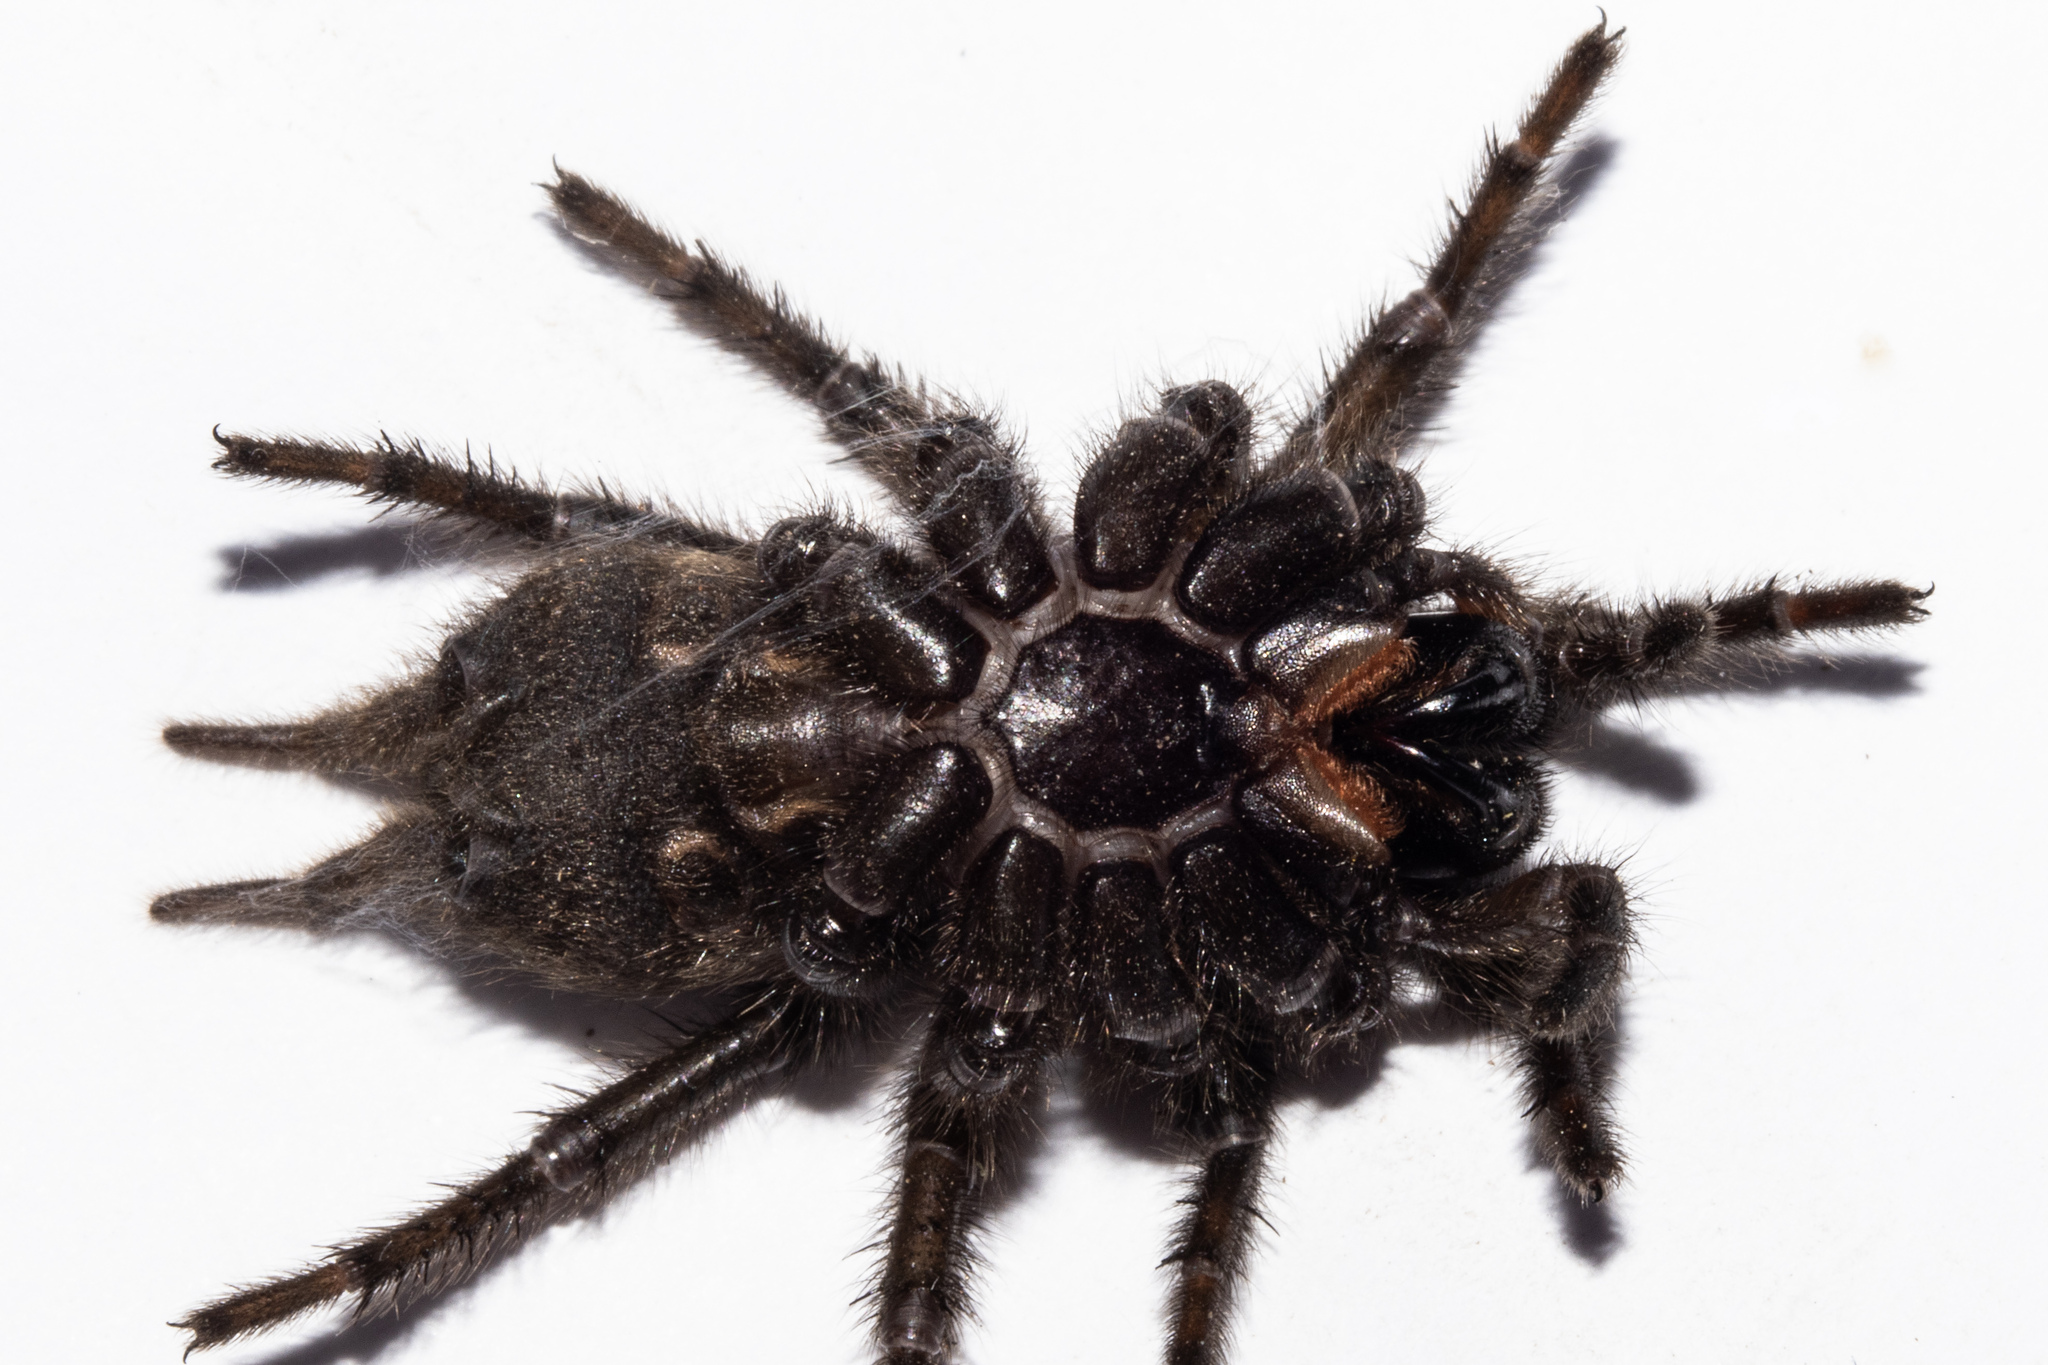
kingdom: Animalia
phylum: Arthropoda
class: Arachnida
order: Araneae
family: Porrhothelidae
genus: Porrhothele
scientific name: Porrhothele antipodiana
